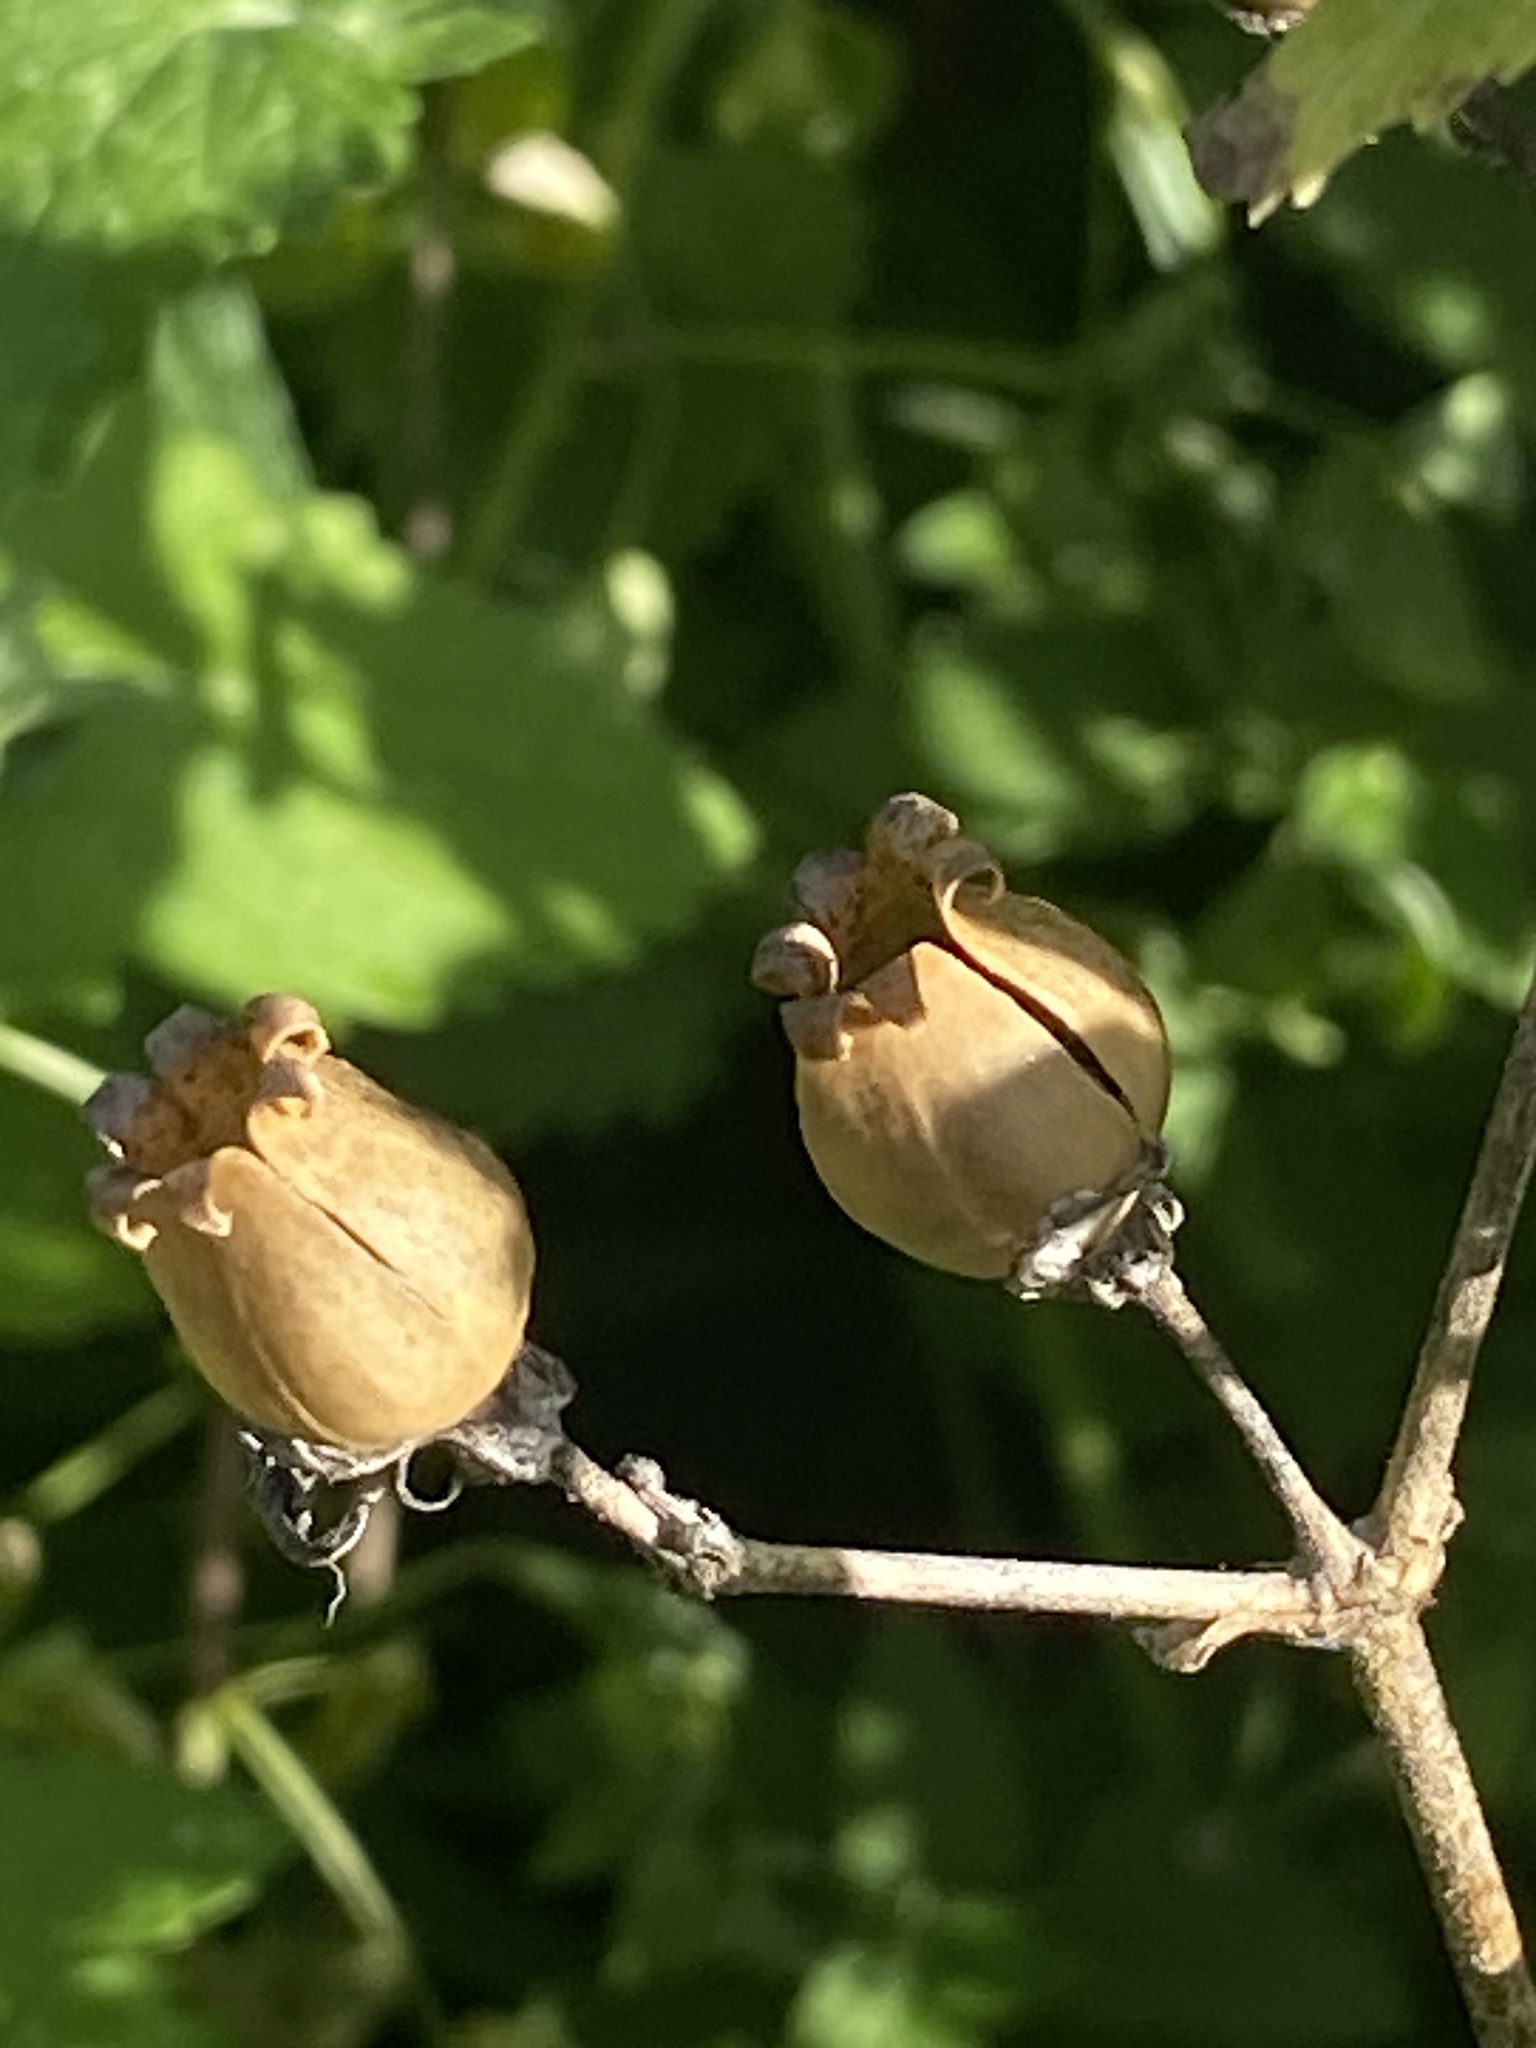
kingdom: Plantae
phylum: Tracheophyta
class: Magnoliopsida
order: Caryophyllales
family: Caryophyllaceae
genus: Silene
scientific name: Silene latifolia
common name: White campion
